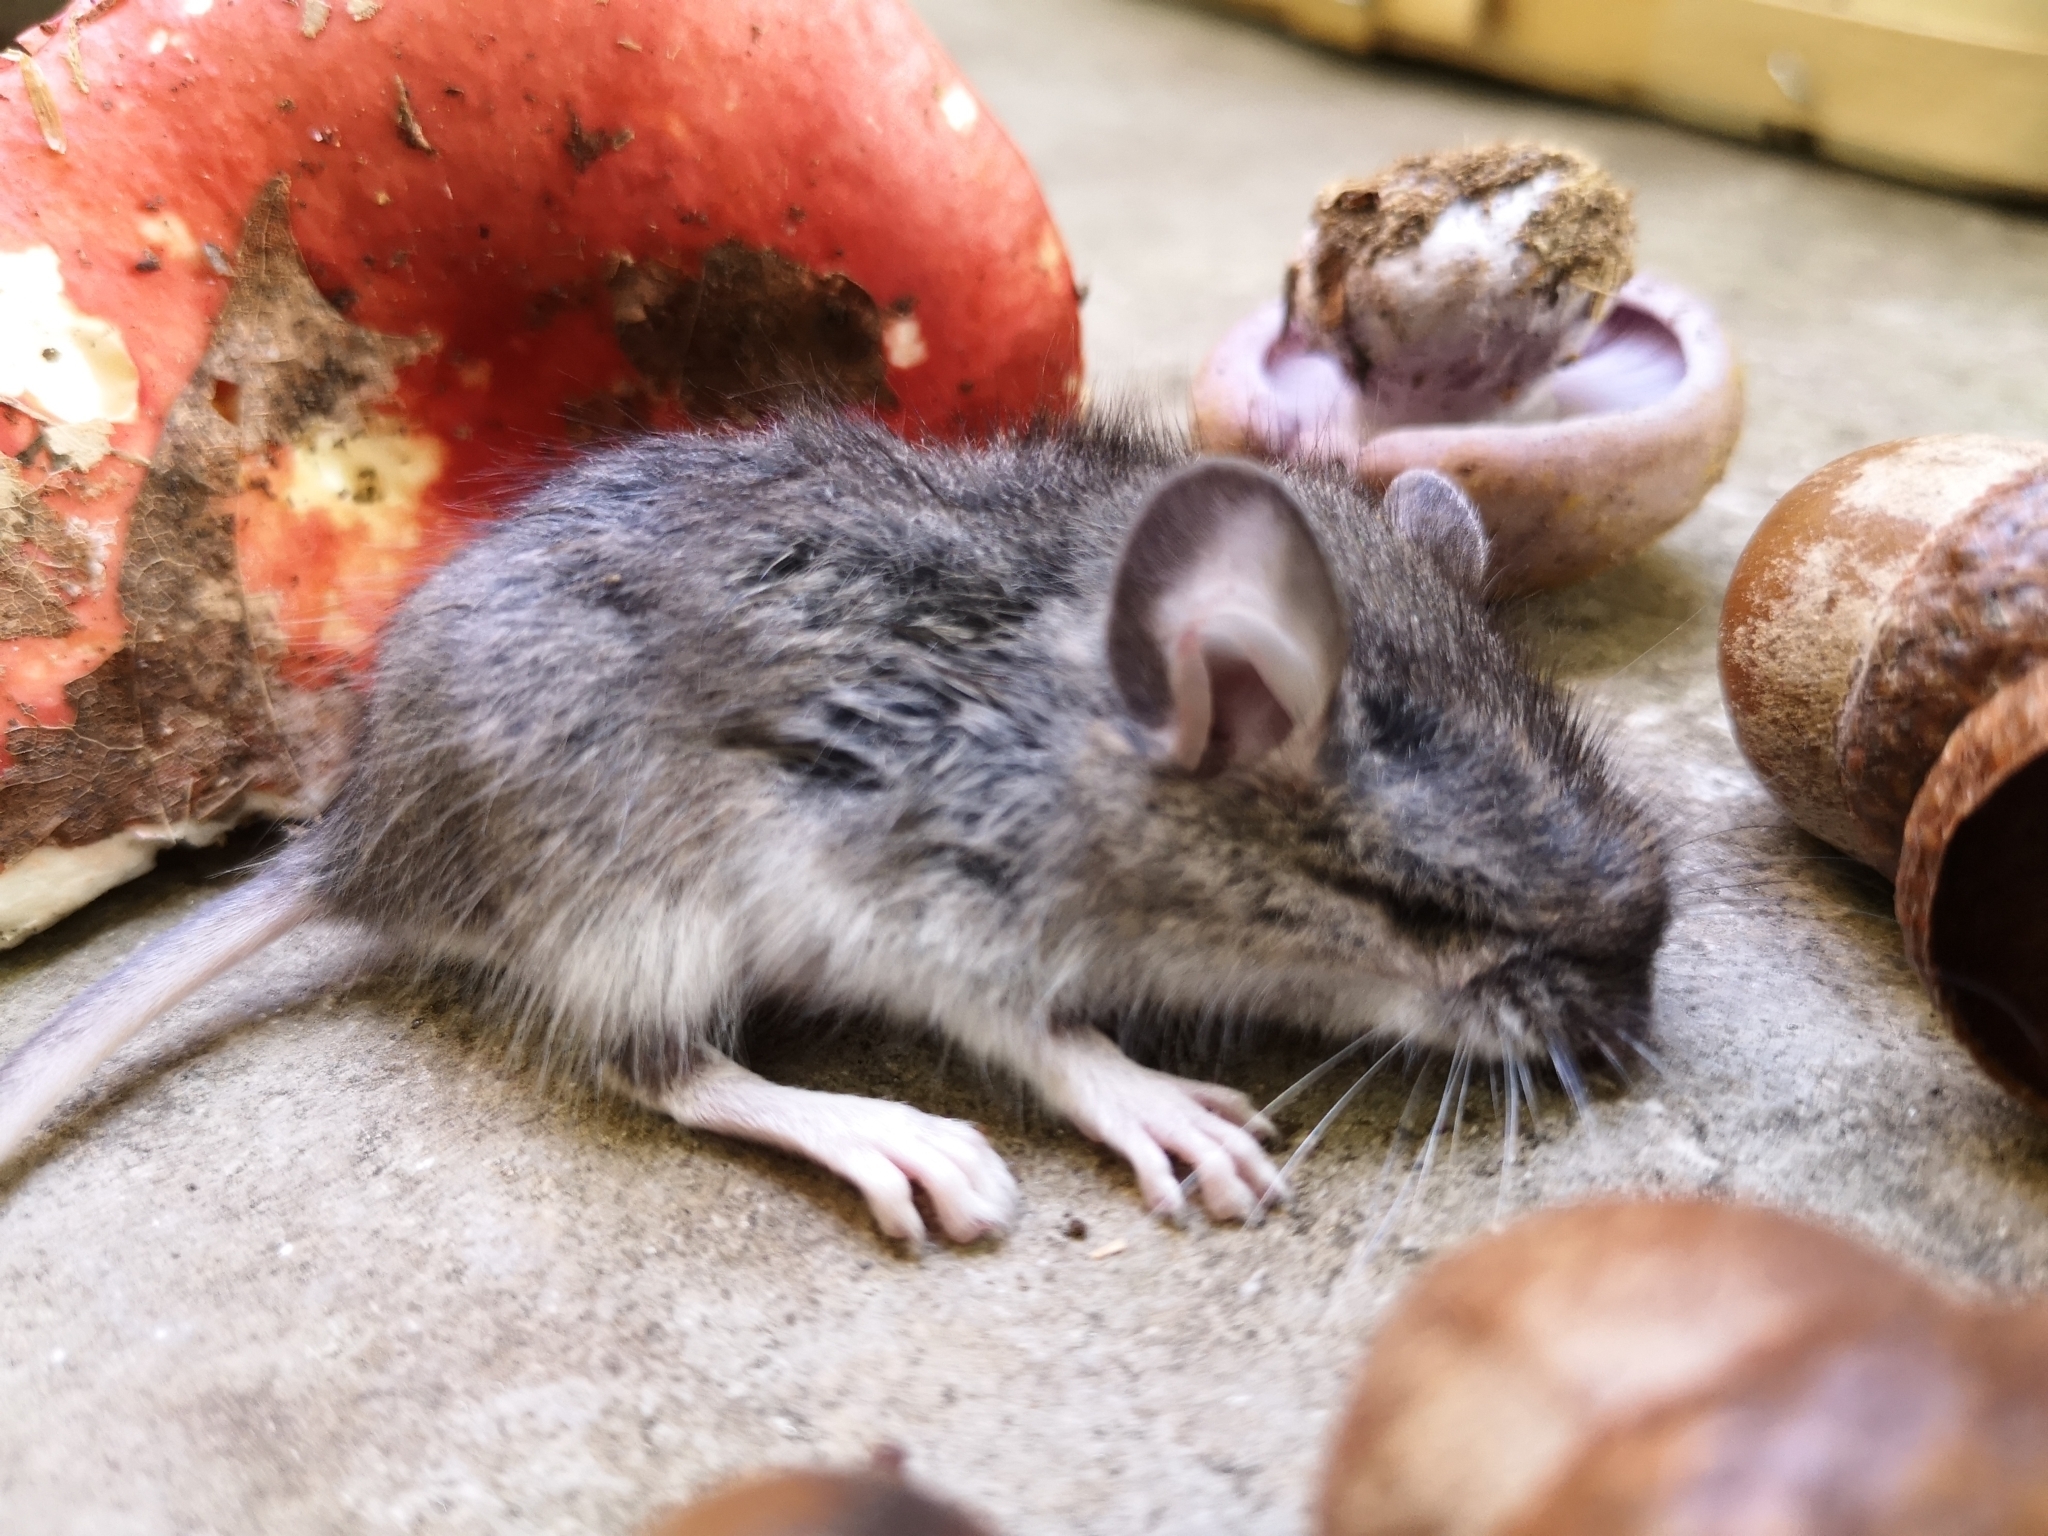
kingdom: Animalia
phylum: Chordata
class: Mammalia
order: Rodentia
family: Cricetidae
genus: Peromyscus
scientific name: Peromyscus
